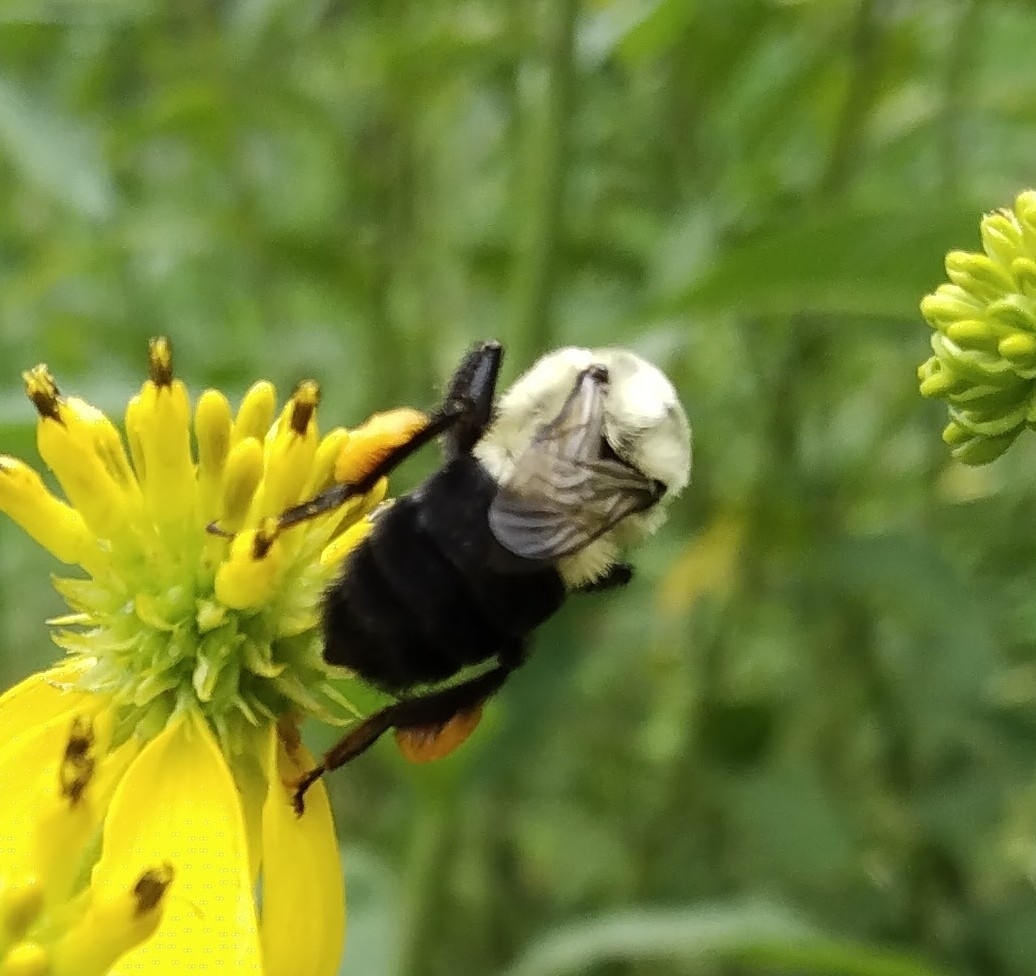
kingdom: Animalia
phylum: Arthropoda
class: Insecta
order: Hymenoptera
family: Apidae
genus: Bombus
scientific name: Bombus impatiens
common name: Common eastern bumble bee
